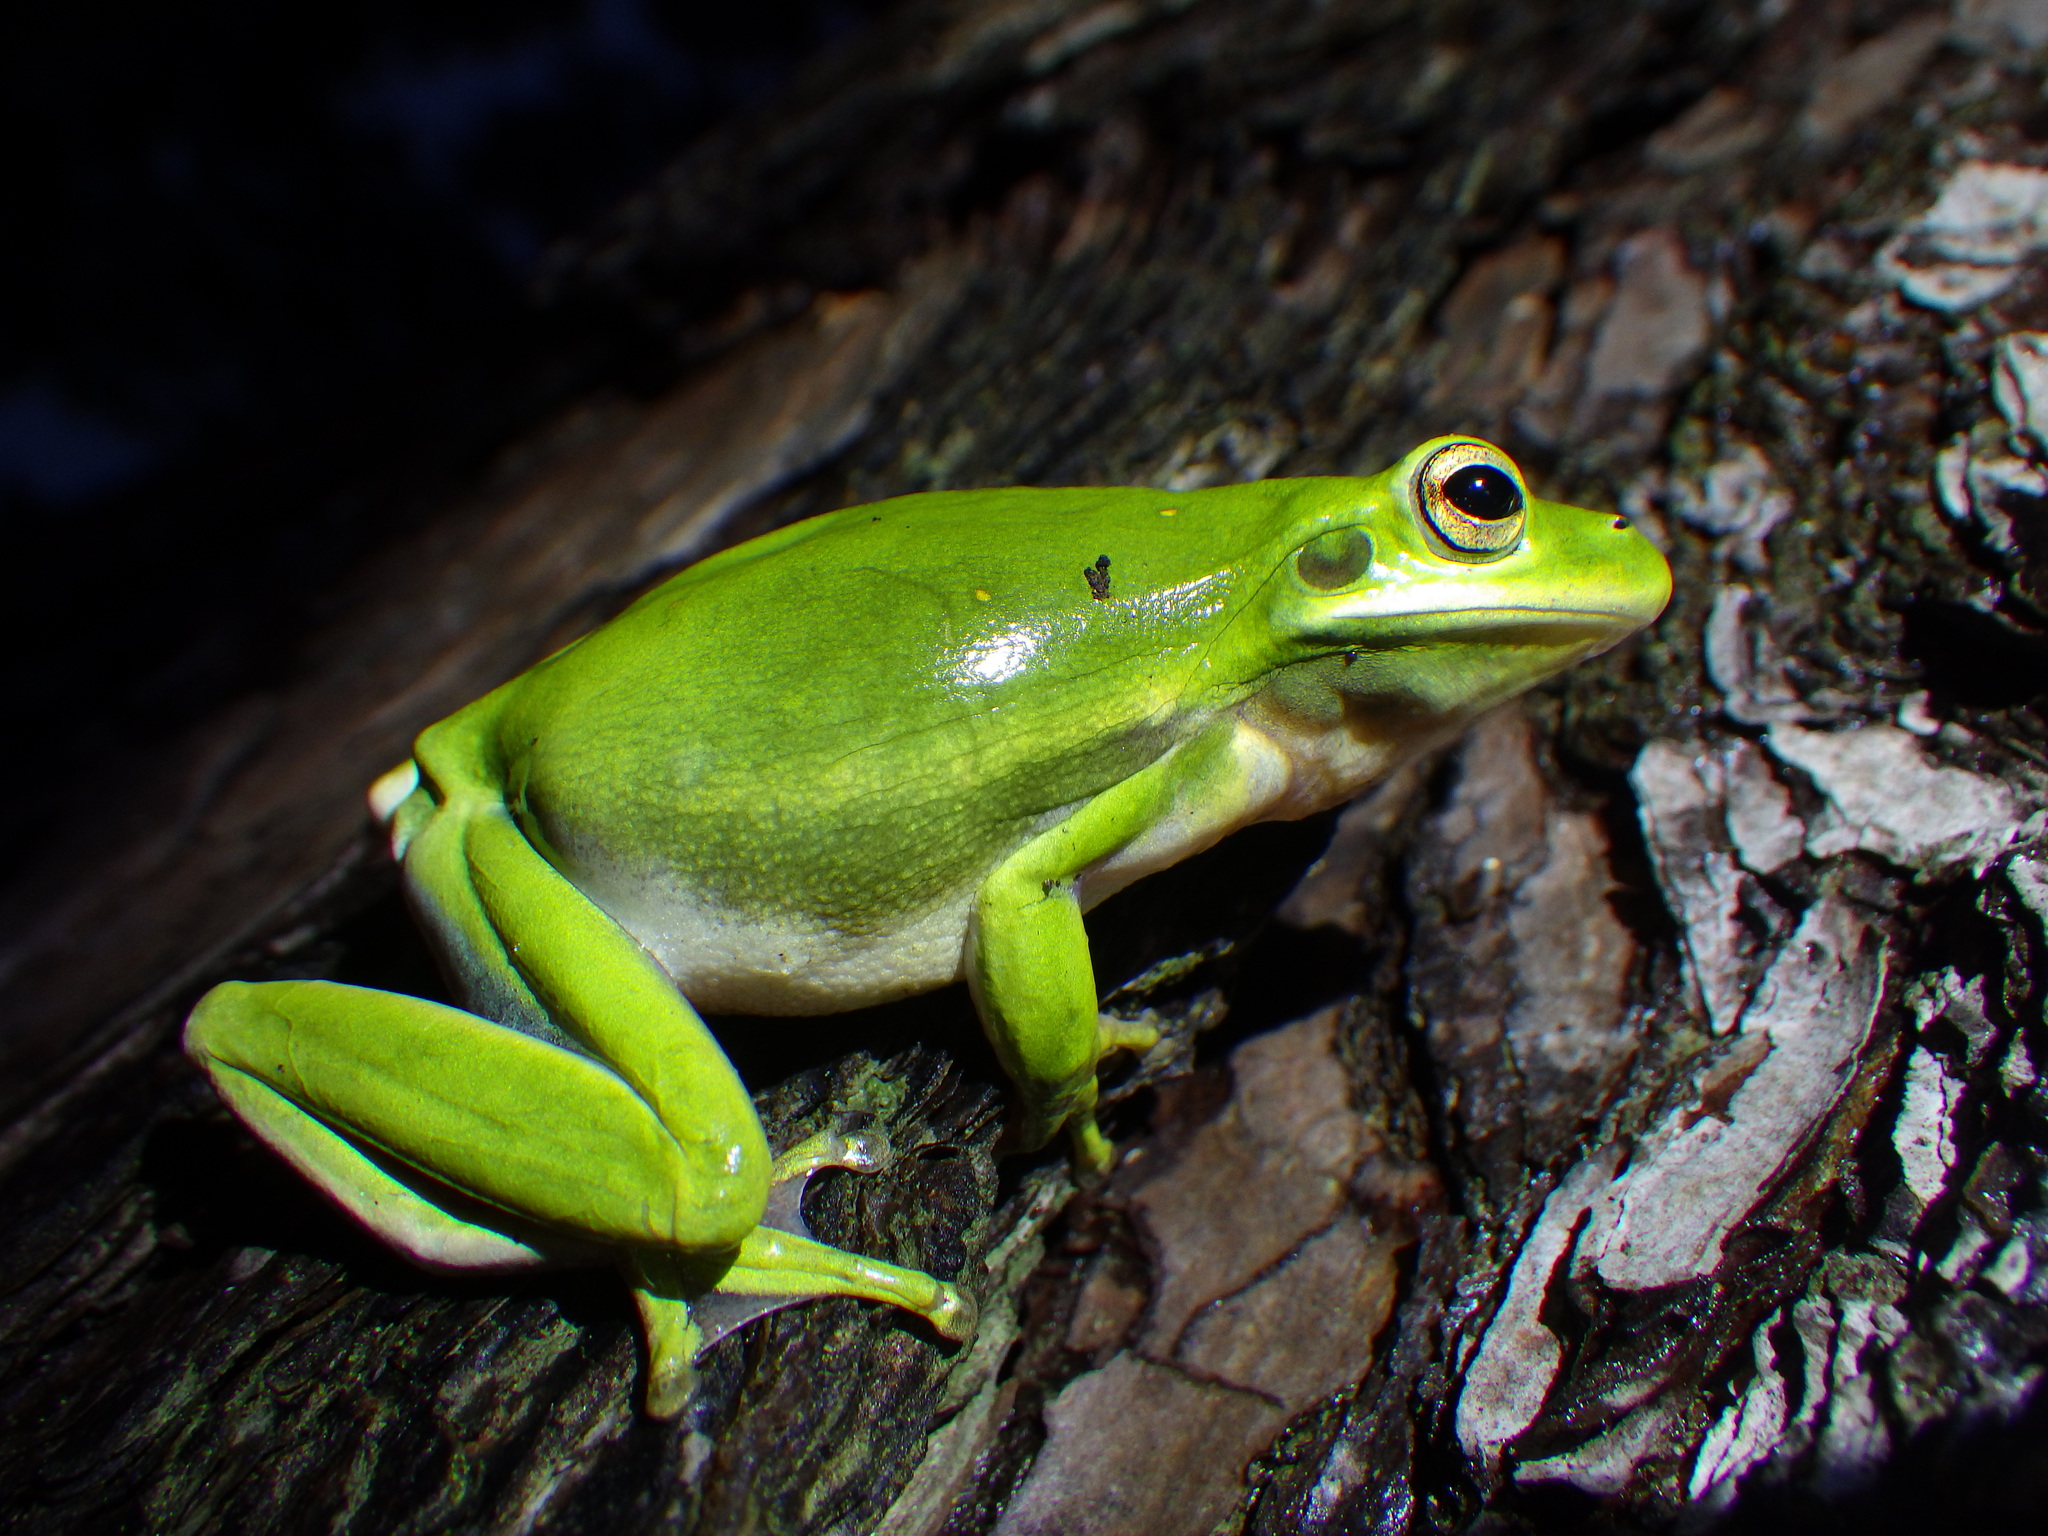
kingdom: Animalia
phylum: Chordata
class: Amphibia
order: Anura
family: Hylidae
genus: Dryophytes
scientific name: Dryophytes cinereus
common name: Green treefrog
